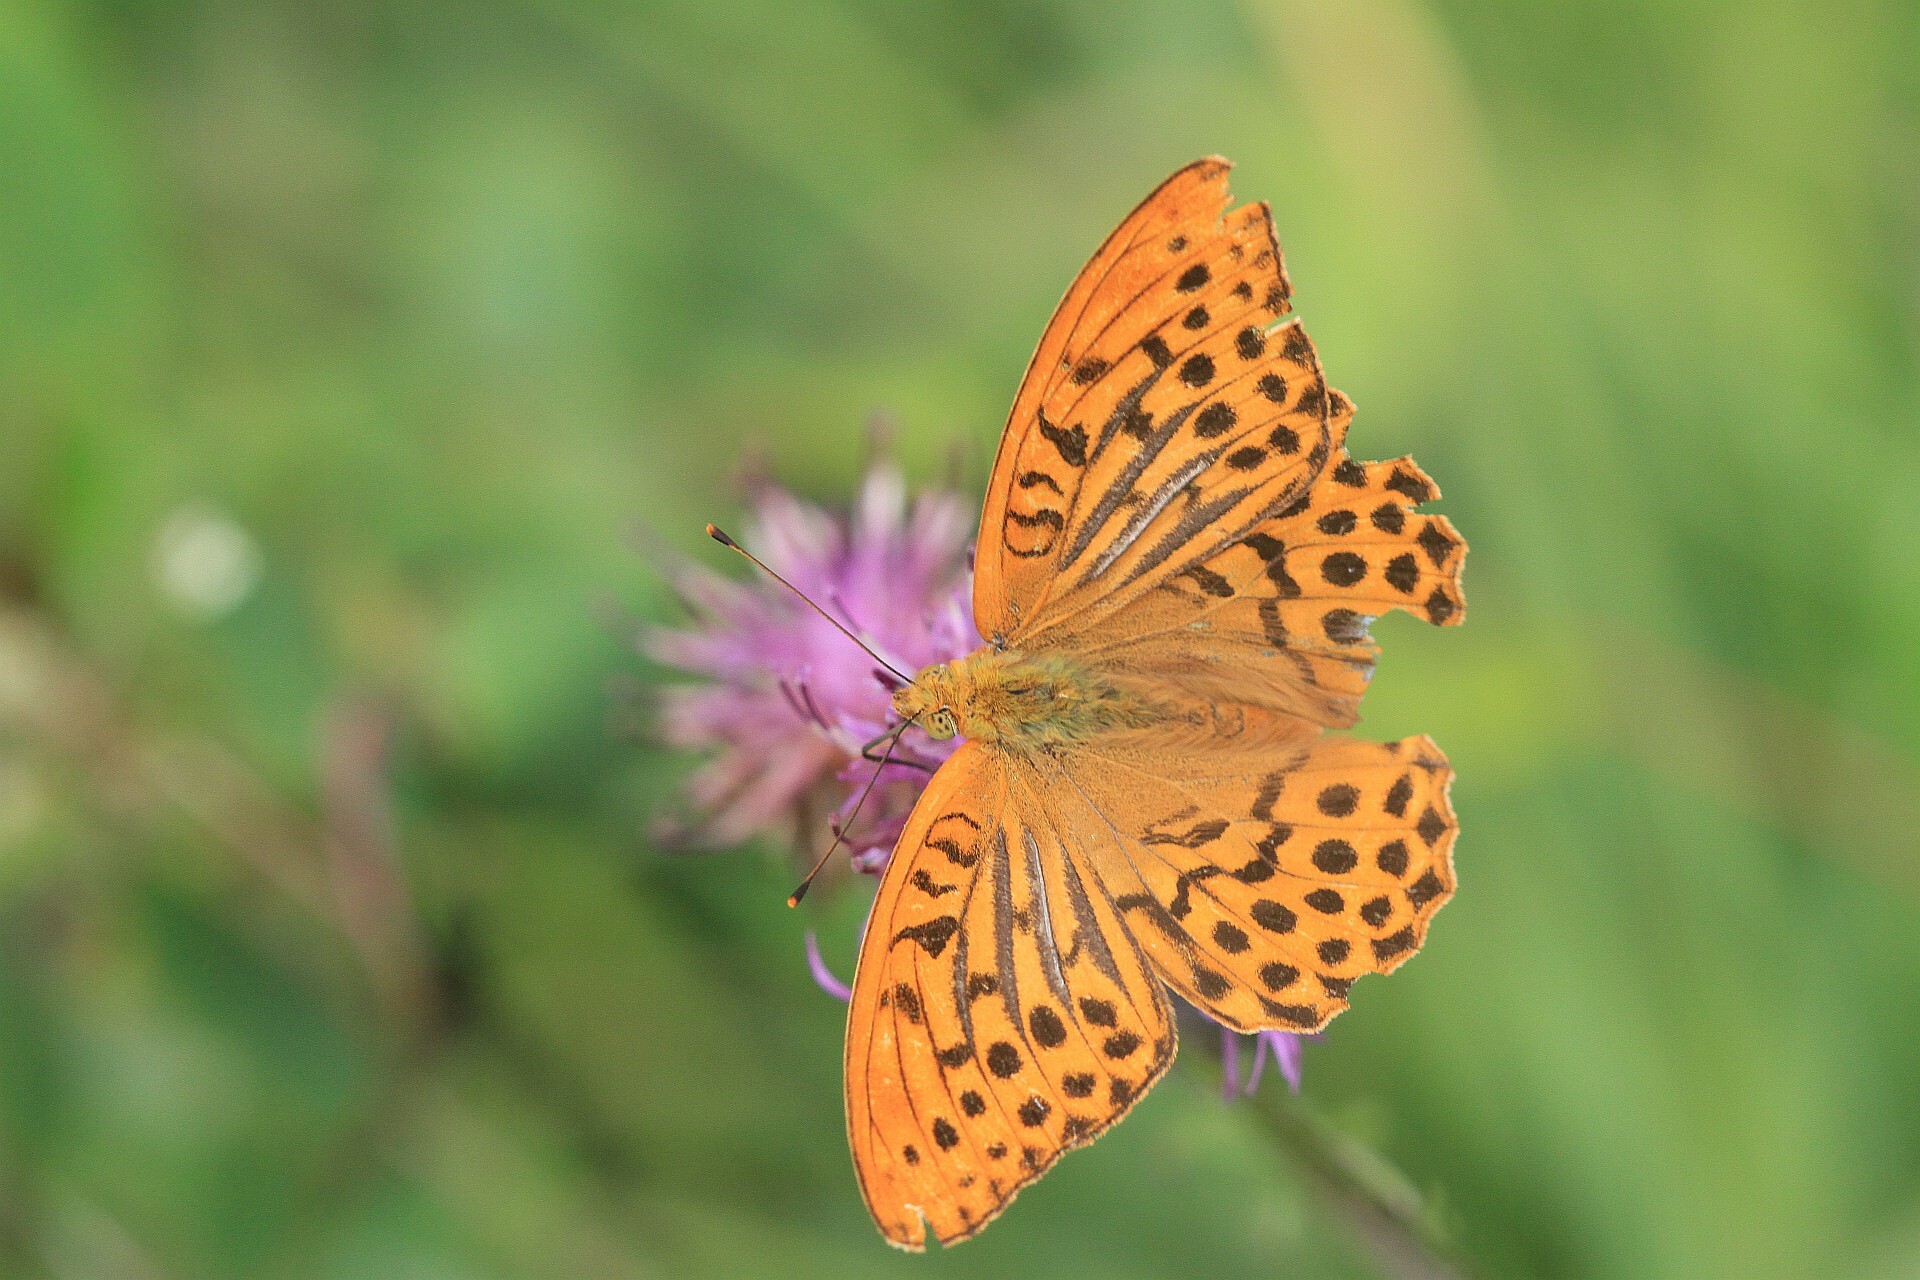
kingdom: Animalia
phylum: Arthropoda
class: Insecta
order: Lepidoptera
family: Nymphalidae
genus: Argynnis
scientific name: Argynnis paphia
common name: Silver-washed fritillary
